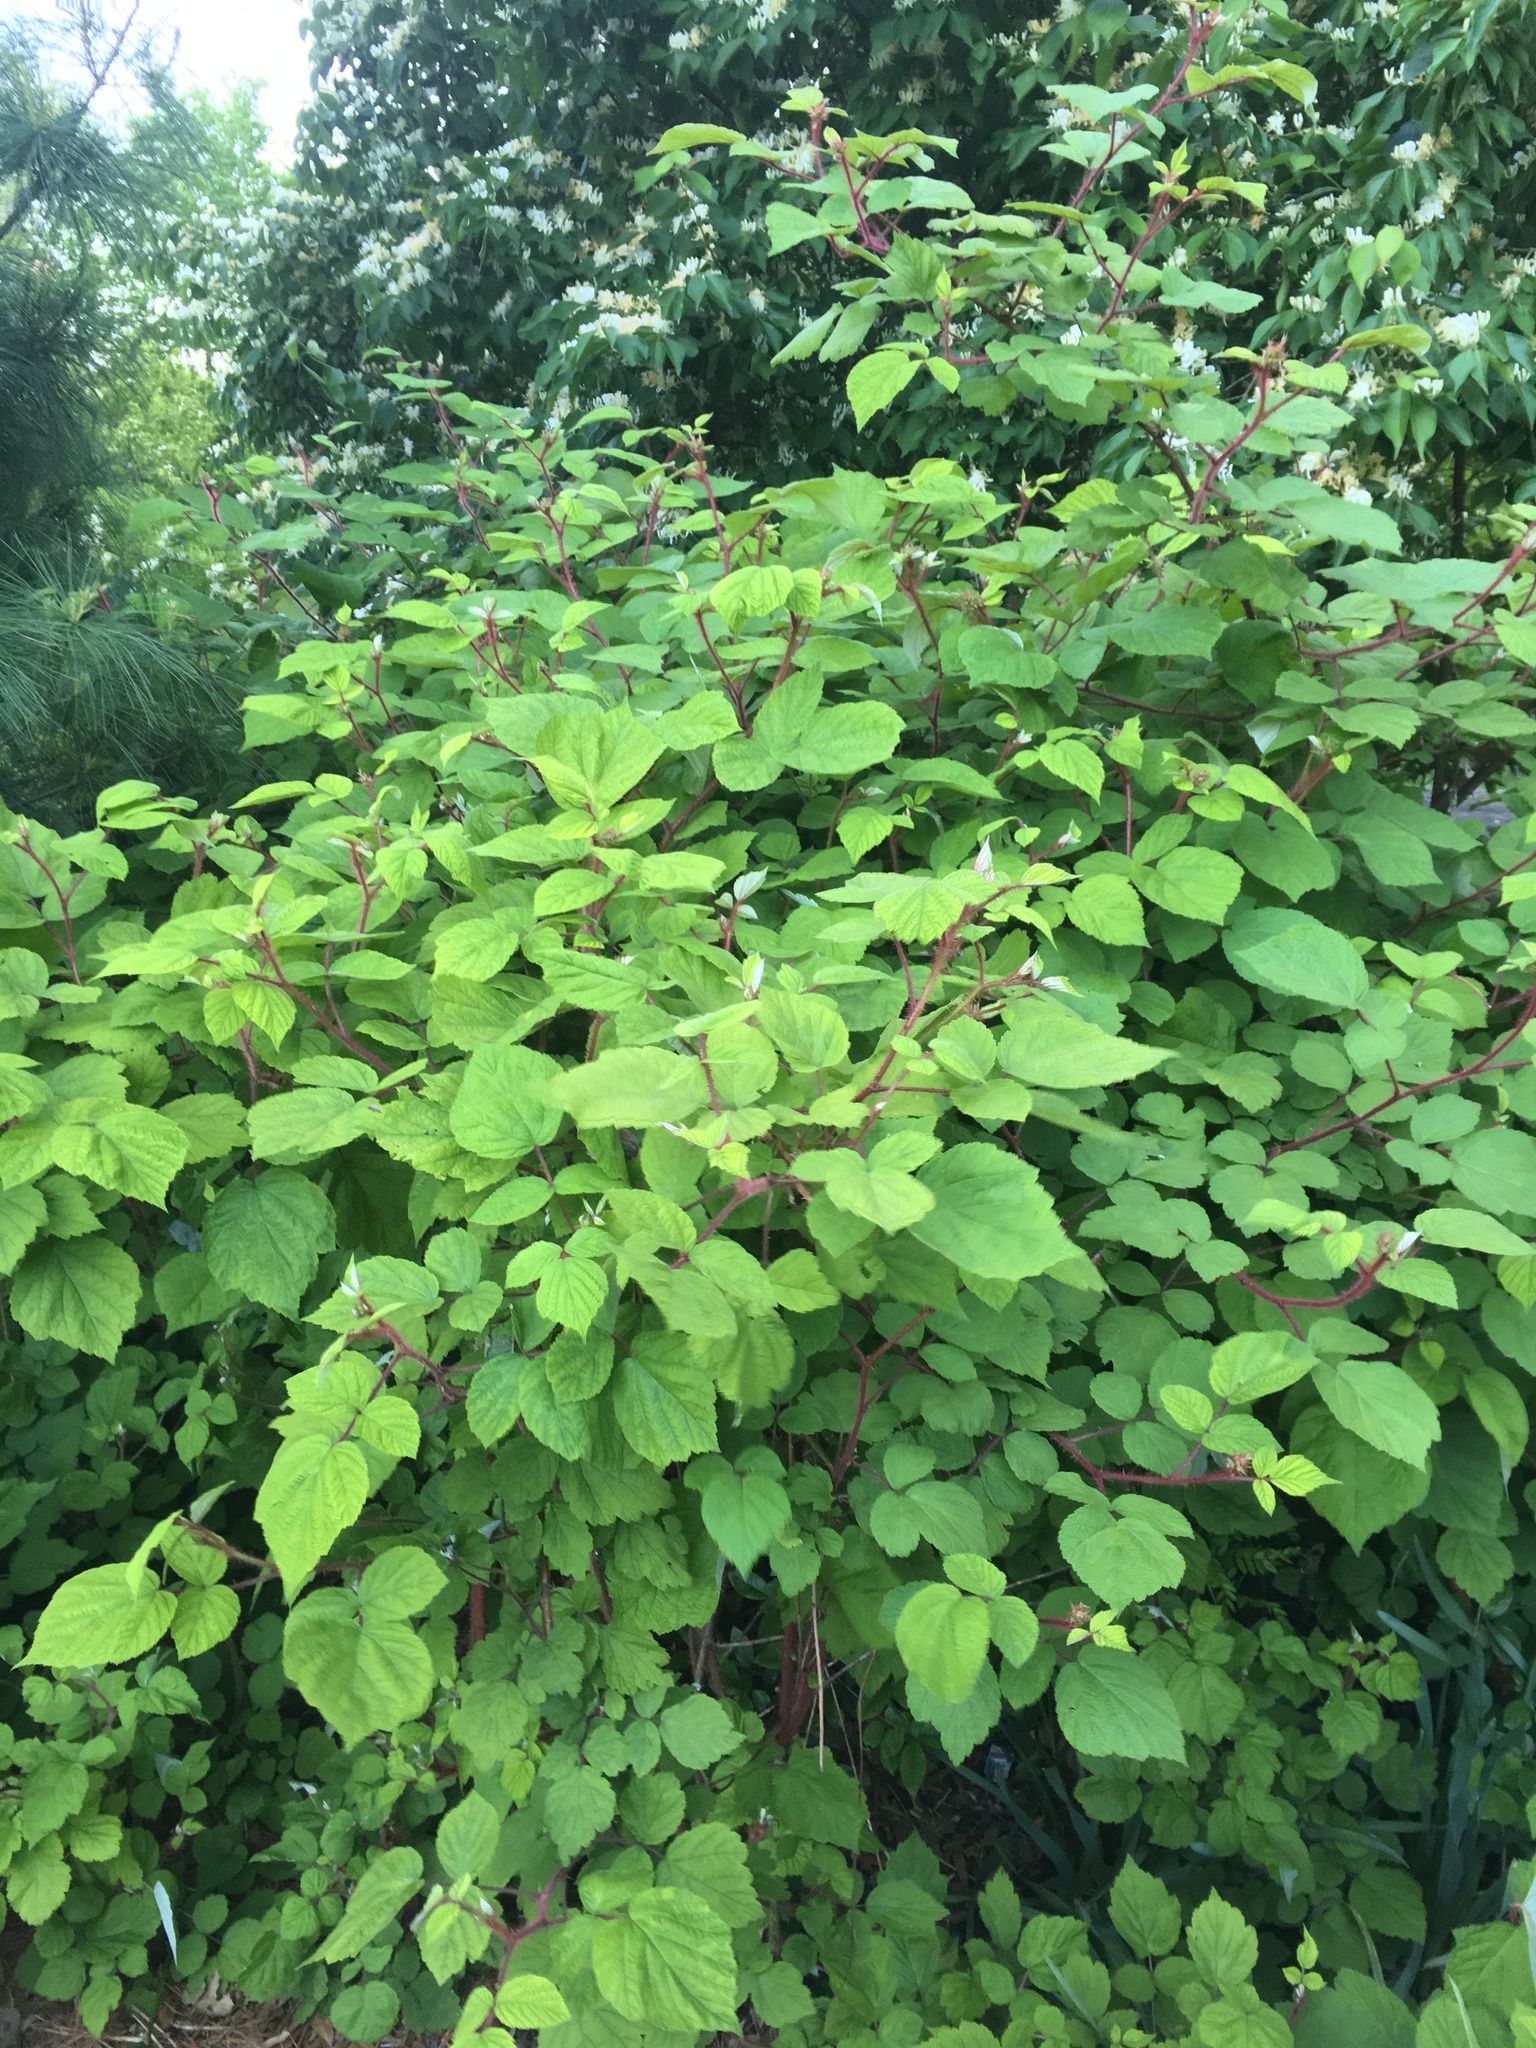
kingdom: Plantae
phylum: Tracheophyta
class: Magnoliopsida
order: Rosales
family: Rosaceae
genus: Rubus
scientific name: Rubus phoenicolasius
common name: Japanese wineberry
